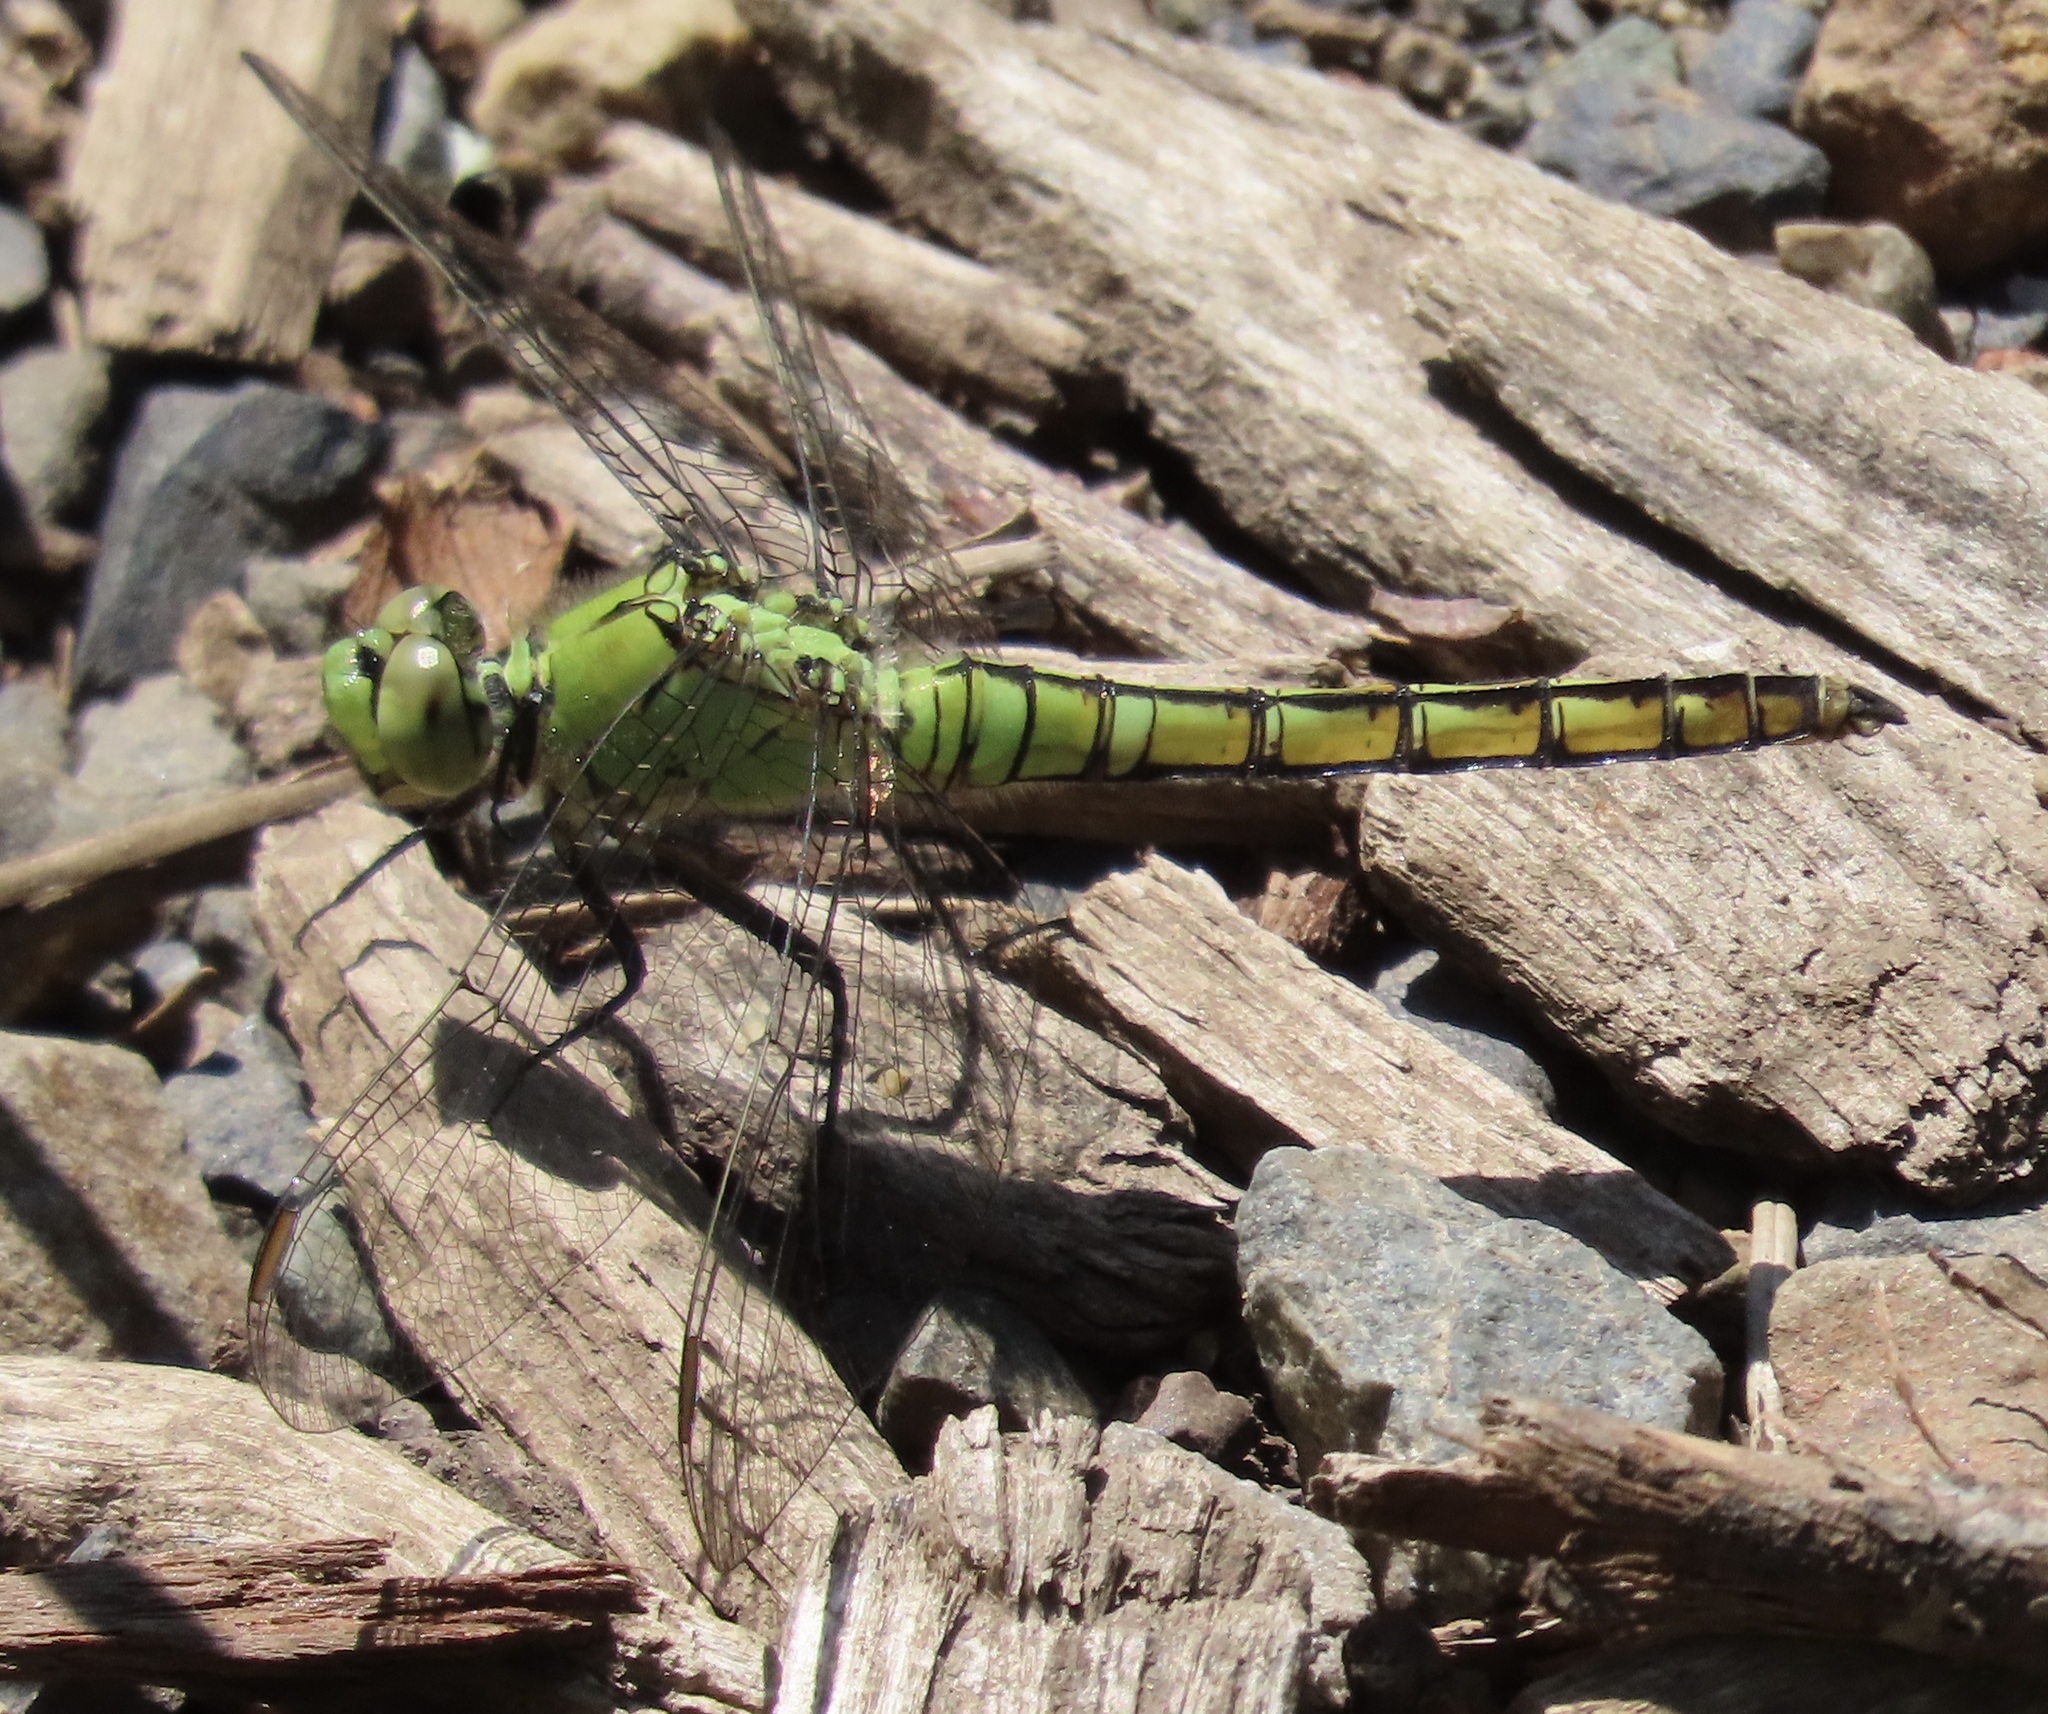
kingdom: Animalia
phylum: Arthropoda
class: Insecta
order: Odonata
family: Libellulidae
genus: Erythemis
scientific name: Erythemis collocata
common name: Western pondhawk
